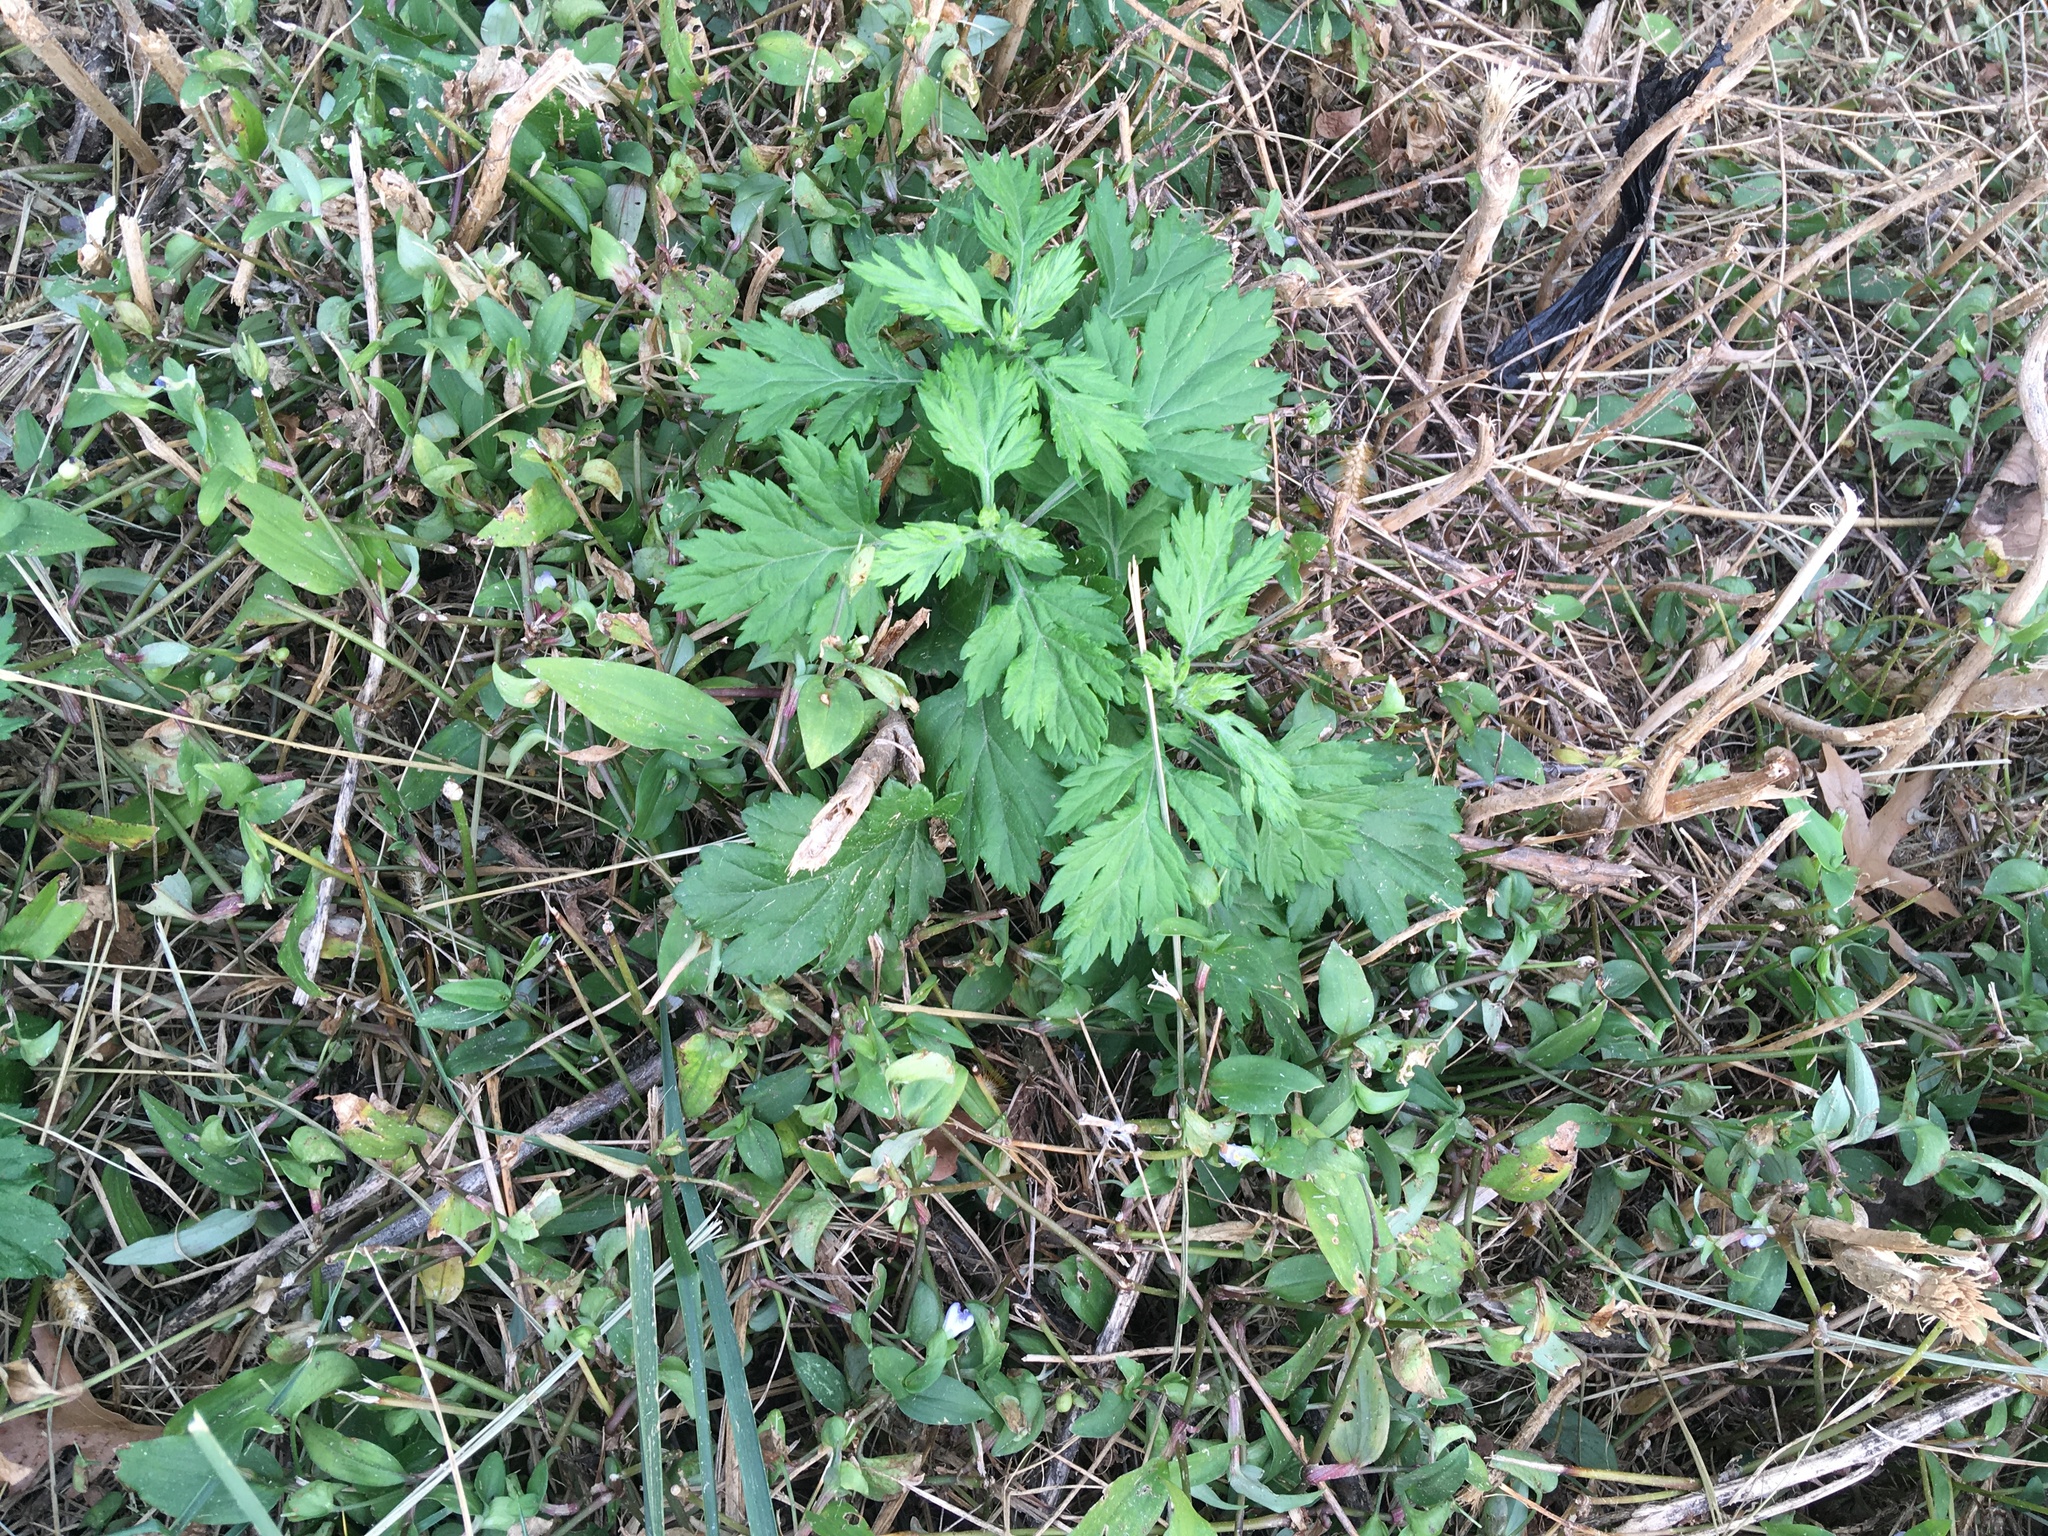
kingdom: Plantae
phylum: Tracheophyta
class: Magnoliopsida
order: Asterales
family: Asteraceae
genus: Artemisia
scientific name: Artemisia vulgaris
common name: Mugwort
